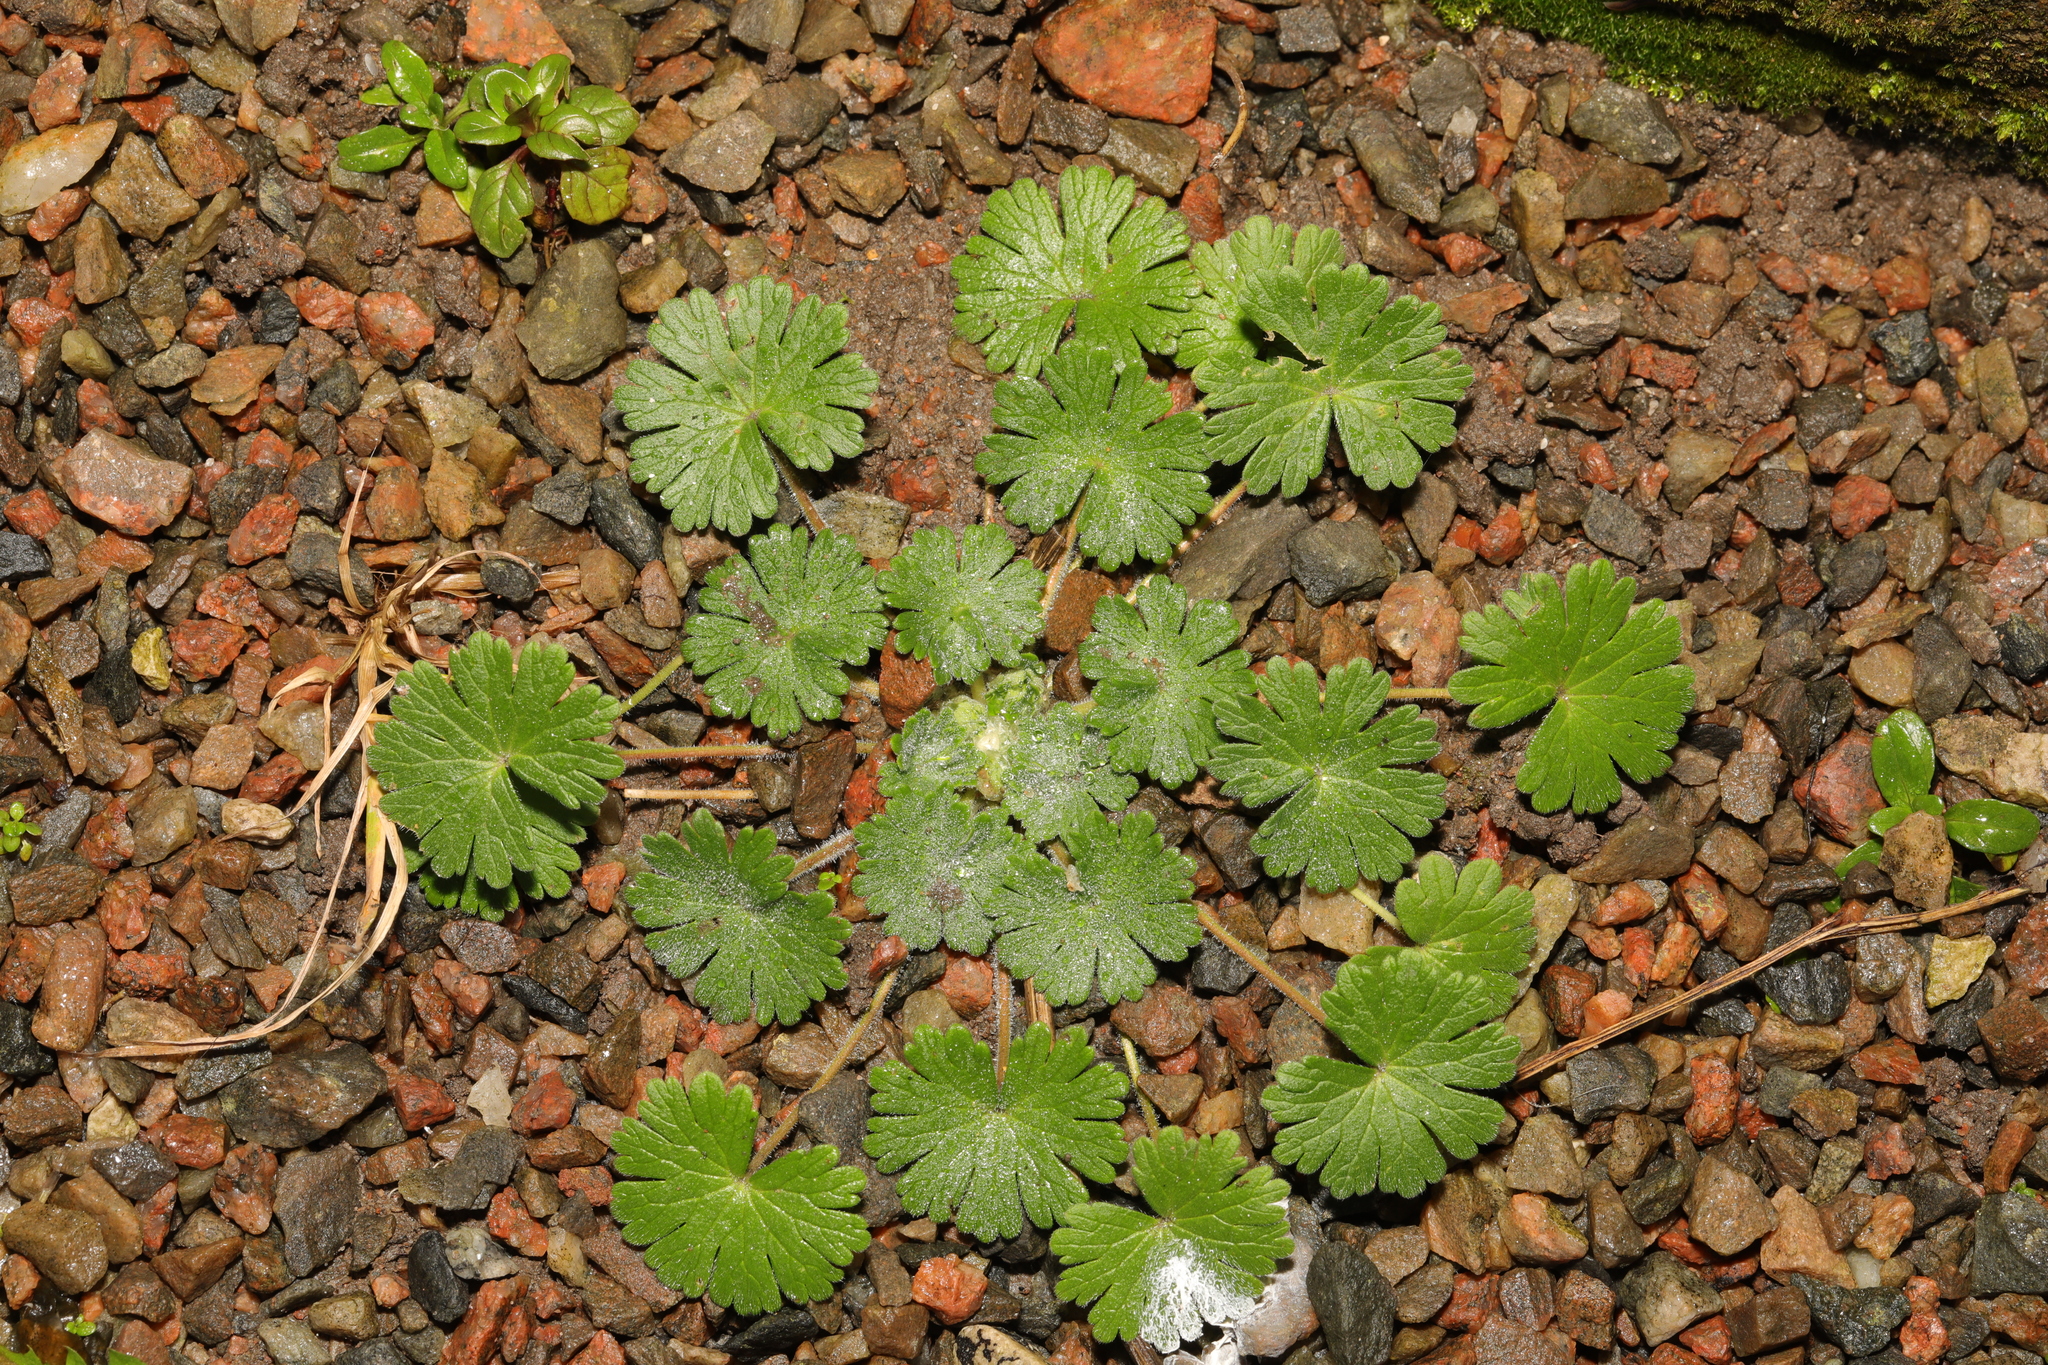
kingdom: Plantae
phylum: Tracheophyta
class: Magnoliopsida
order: Geraniales
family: Geraniaceae
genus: Geranium
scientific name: Geranium molle
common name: Dove's-foot crane's-bill
